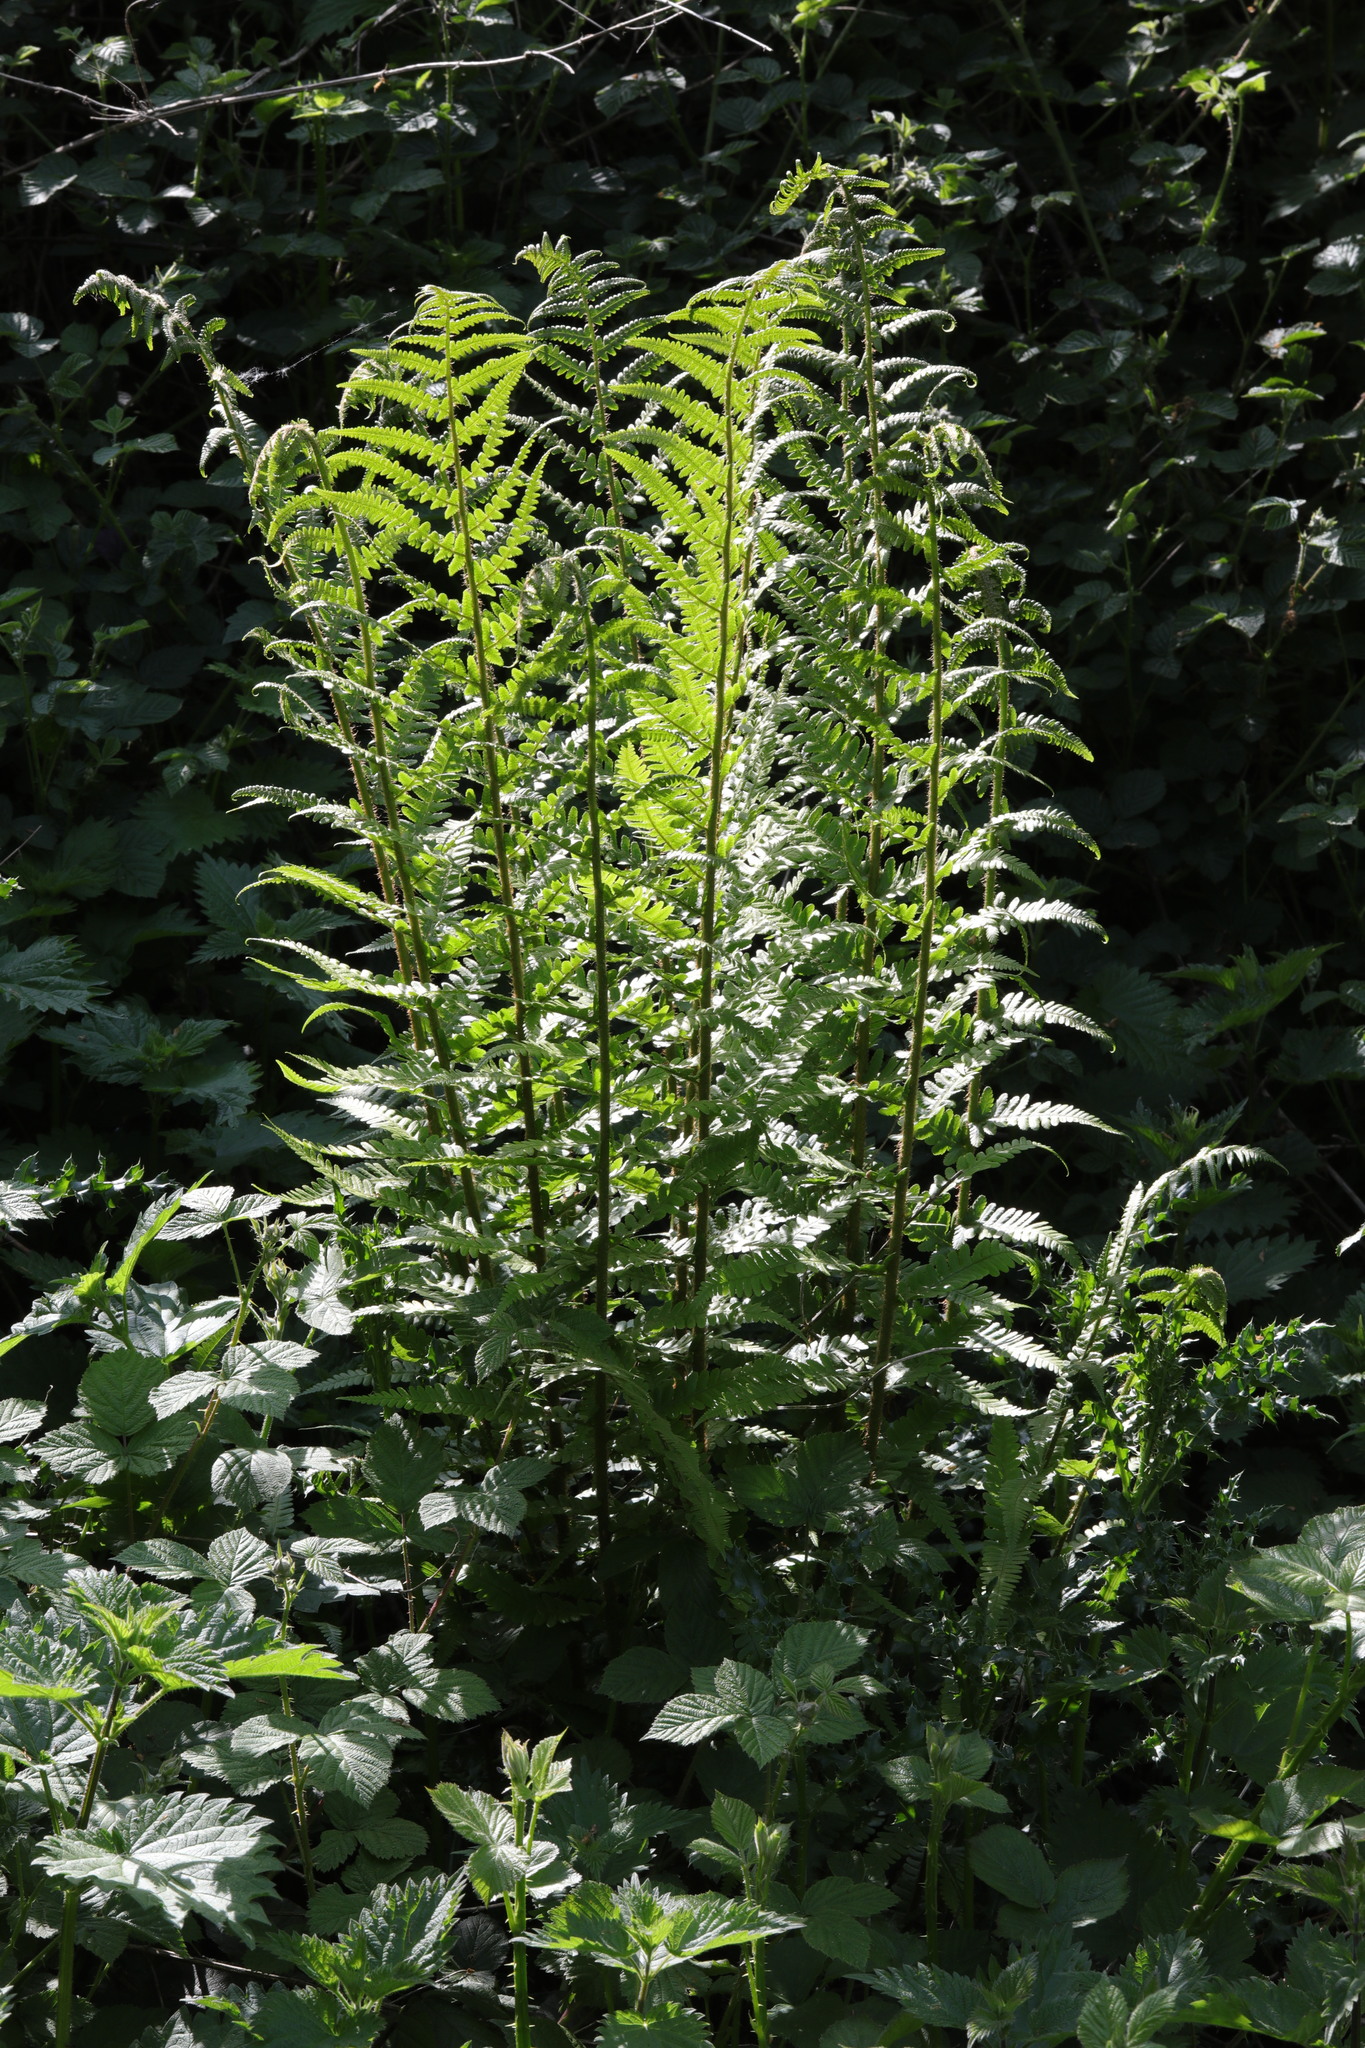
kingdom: Plantae
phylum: Tracheophyta
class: Polypodiopsida
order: Polypodiales
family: Dryopteridaceae
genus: Dryopteris
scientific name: Dryopteris filix-mas
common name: Male fern
